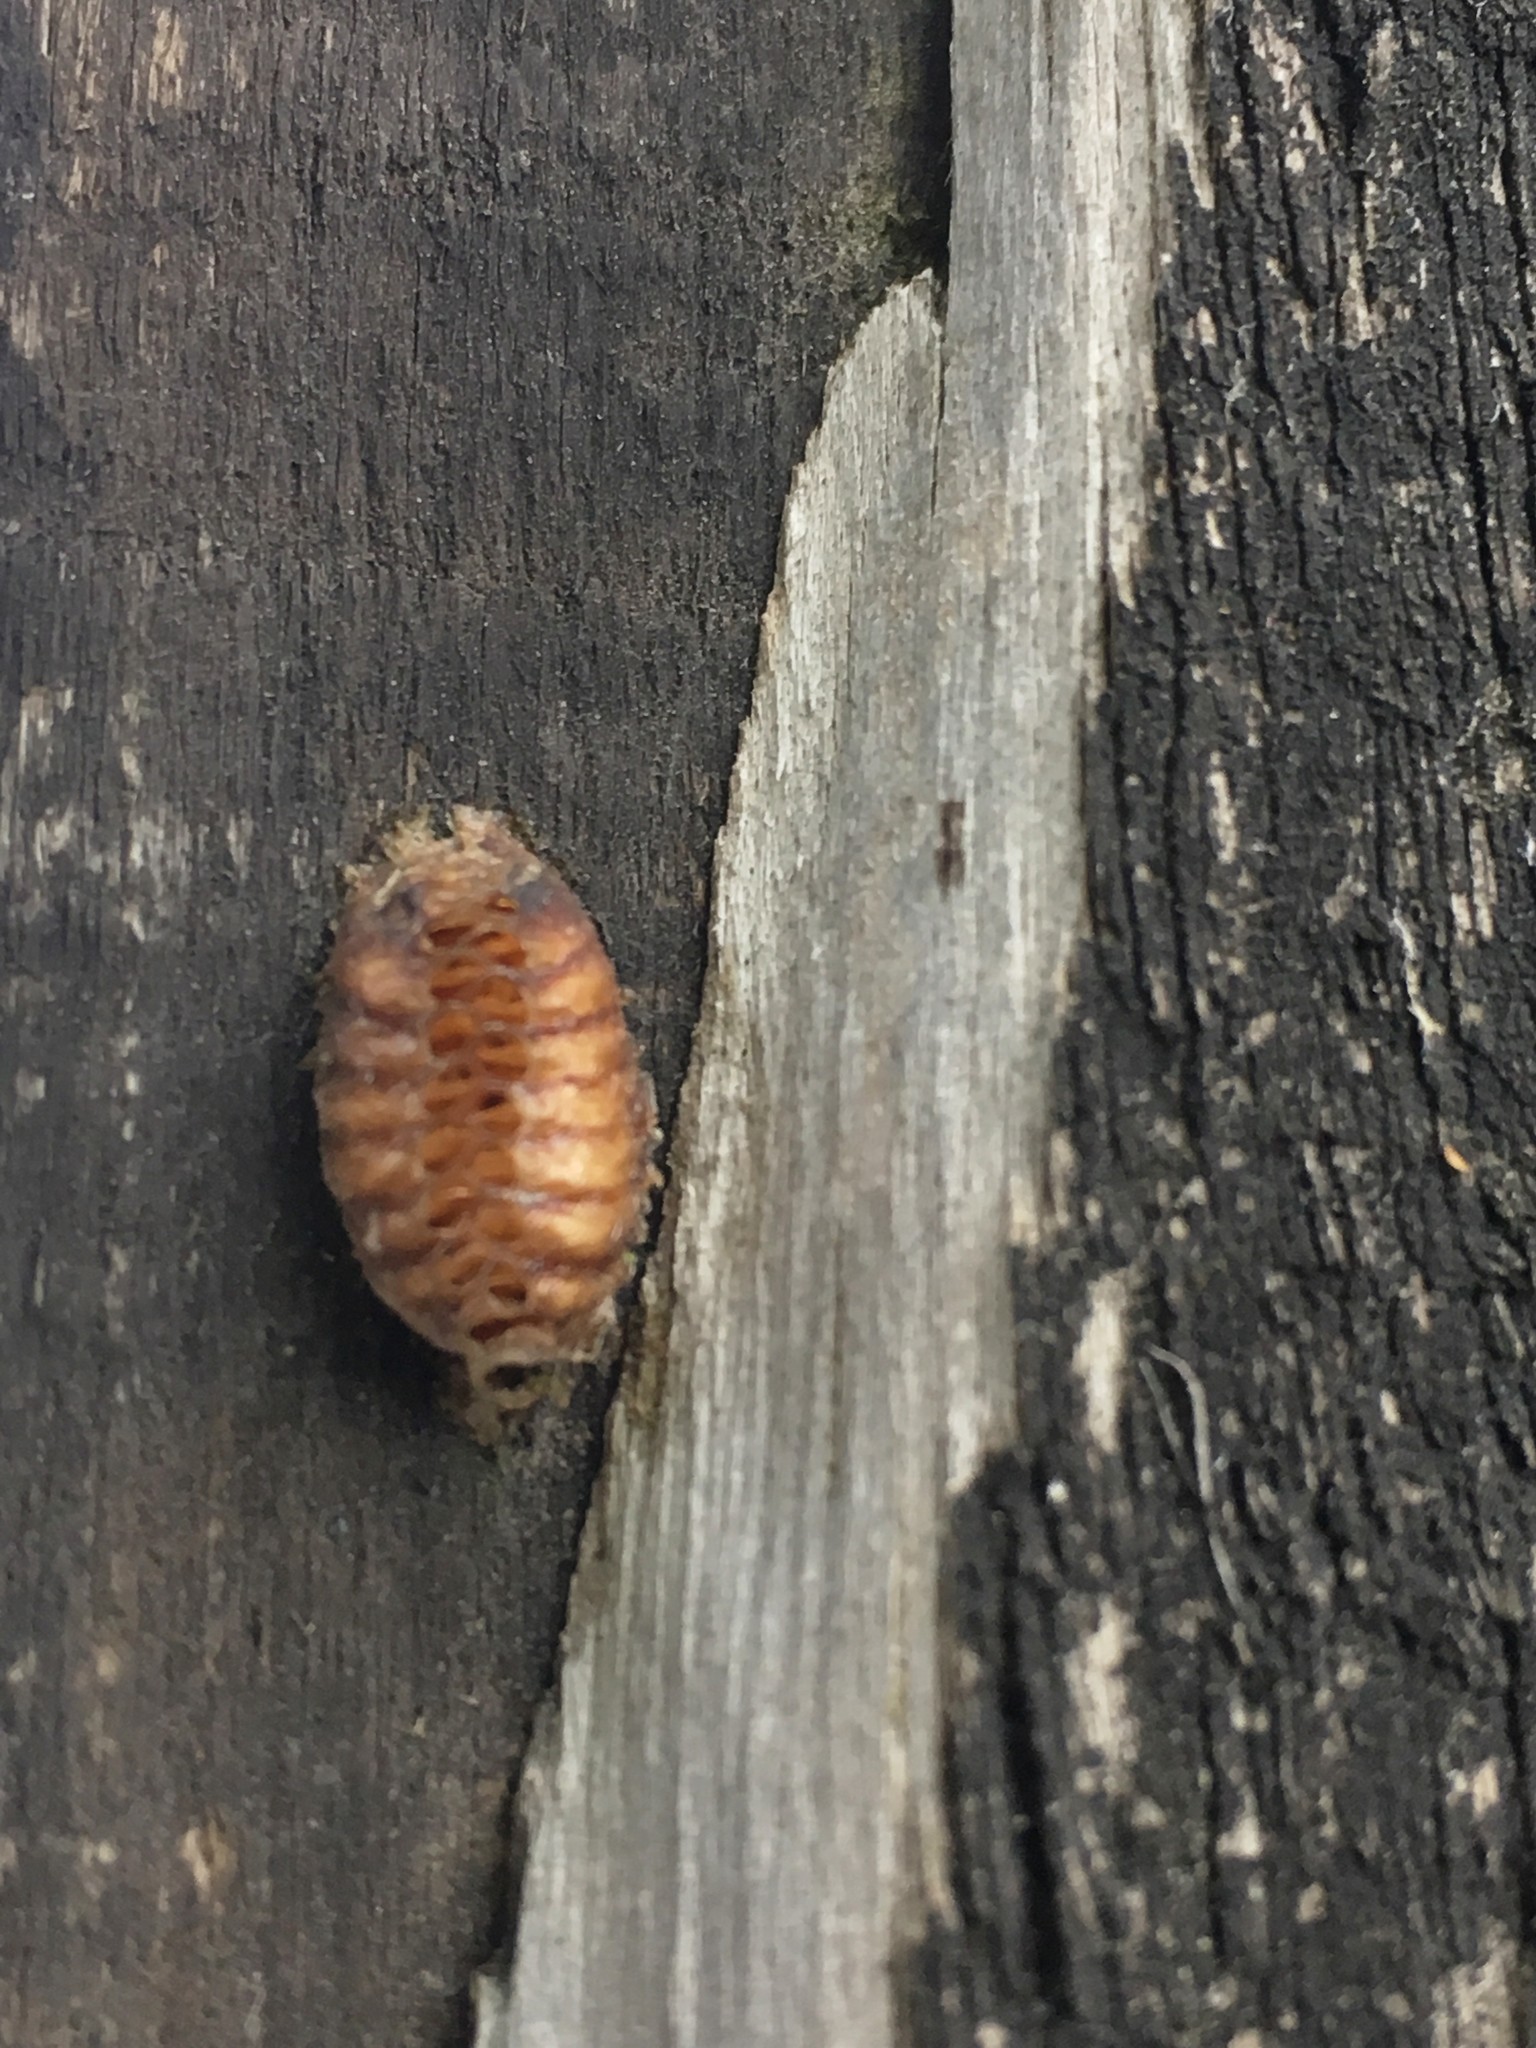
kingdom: Animalia
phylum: Arthropoda
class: Insecta
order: Mantodea
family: Mantidae
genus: Orthodera
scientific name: Orthodera novaezealandiae
